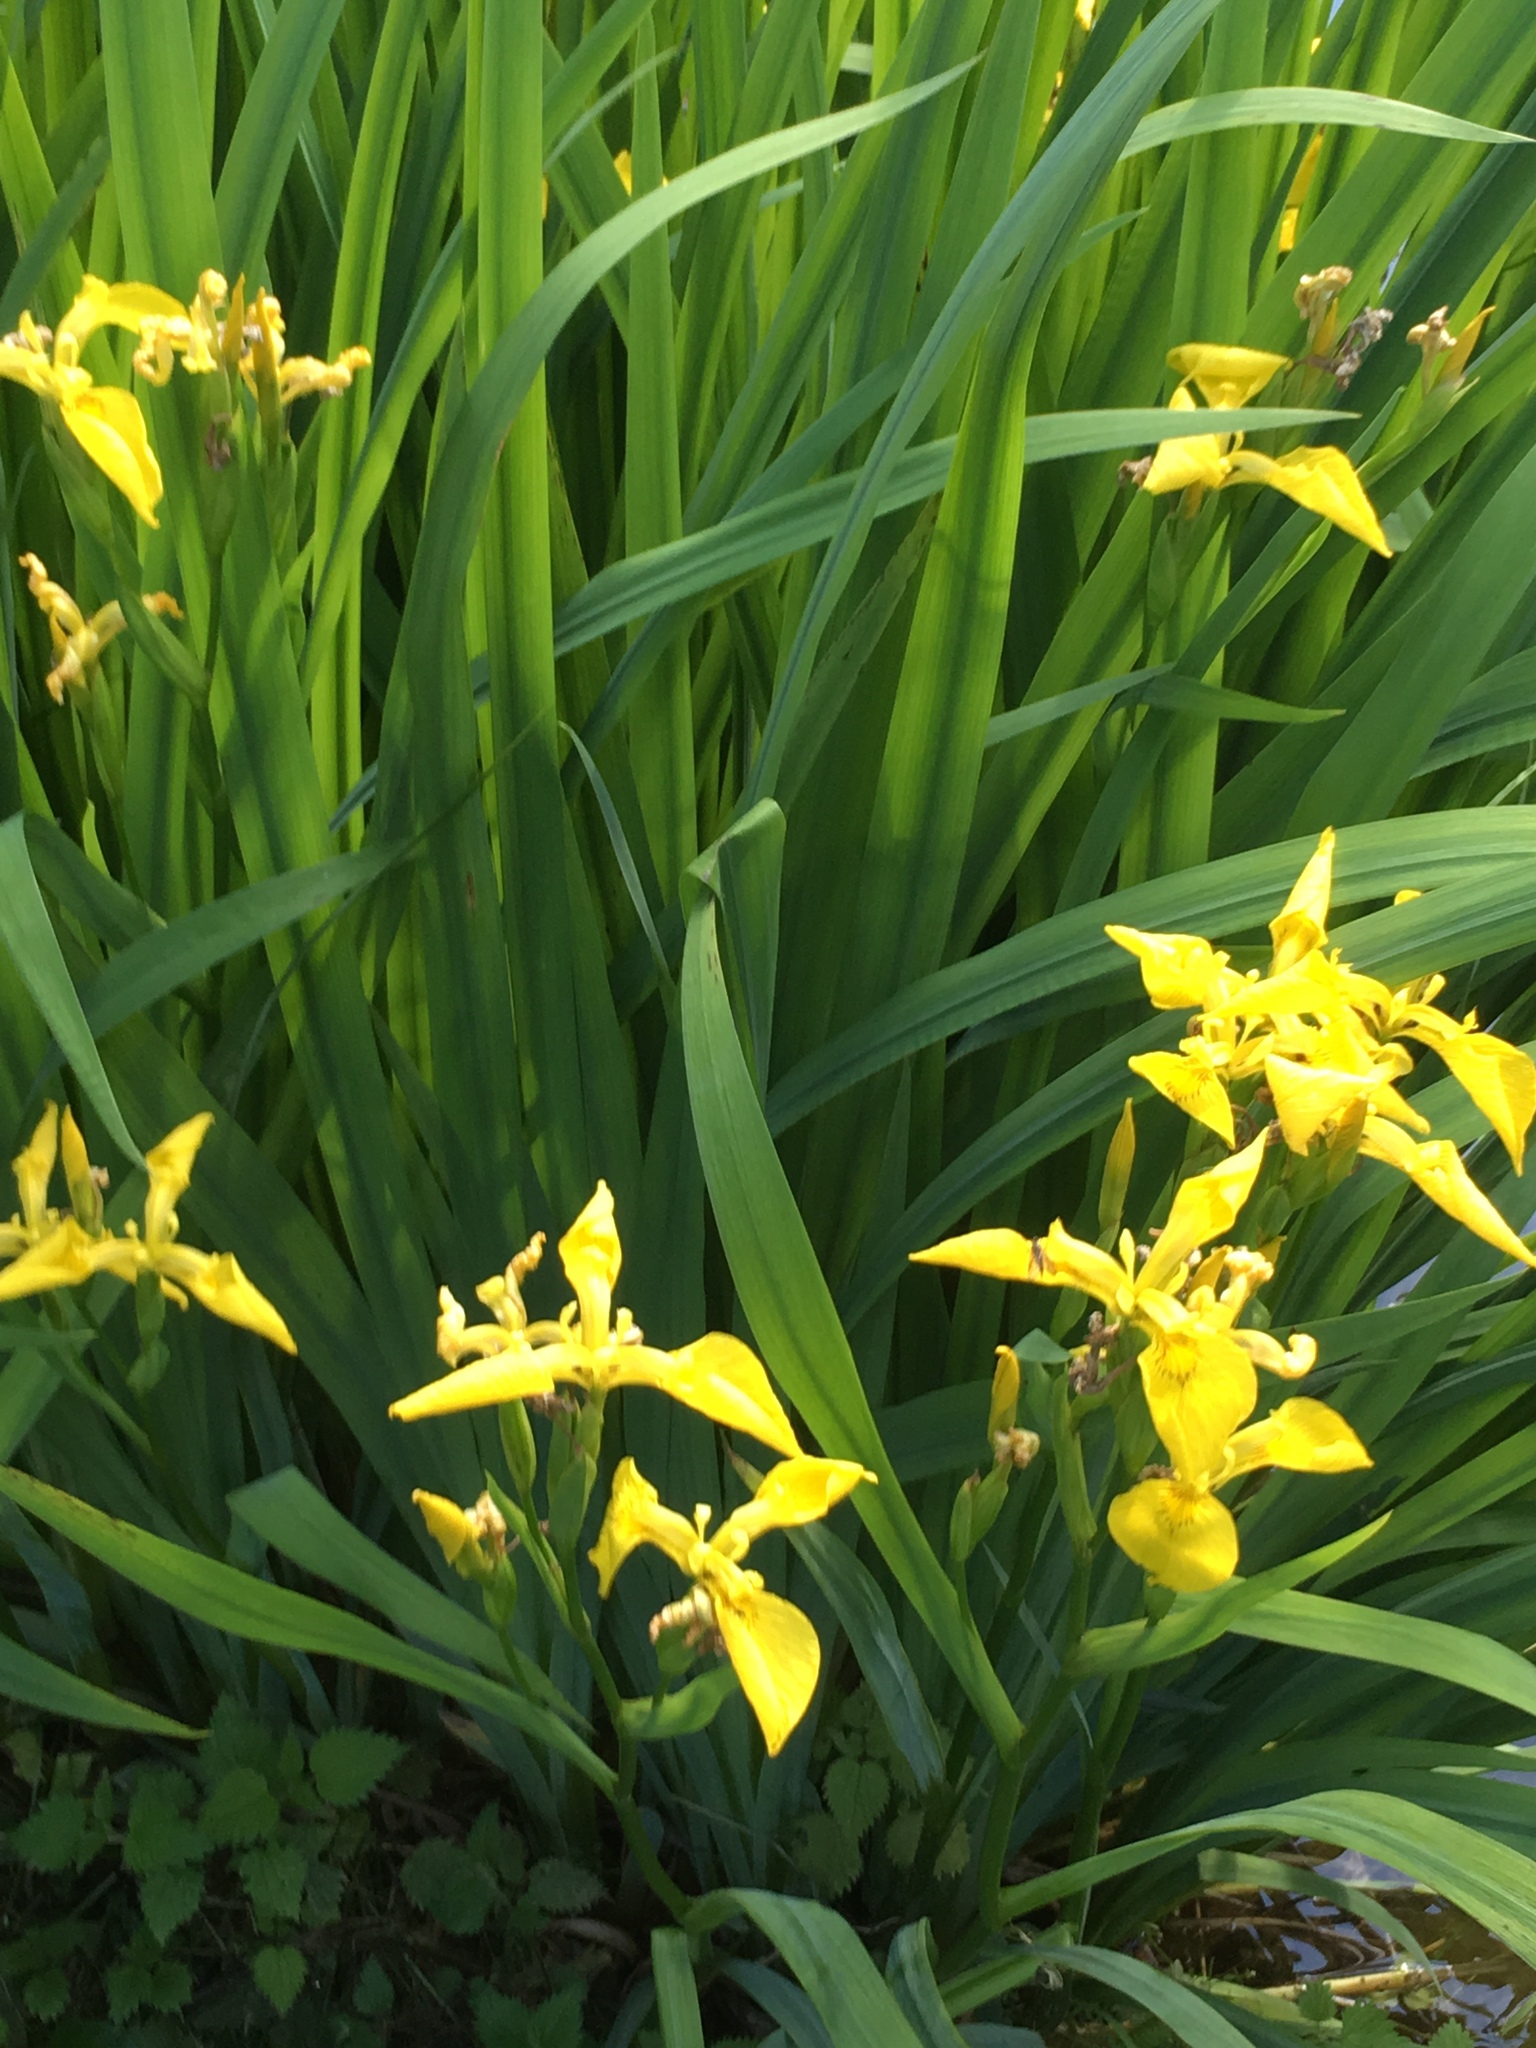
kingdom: Plantae
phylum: Tracheophyta
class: Liliopsida
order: Asparagales
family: Iridaceae
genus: Iris
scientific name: Iris pseudacorus
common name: Yellow flag
